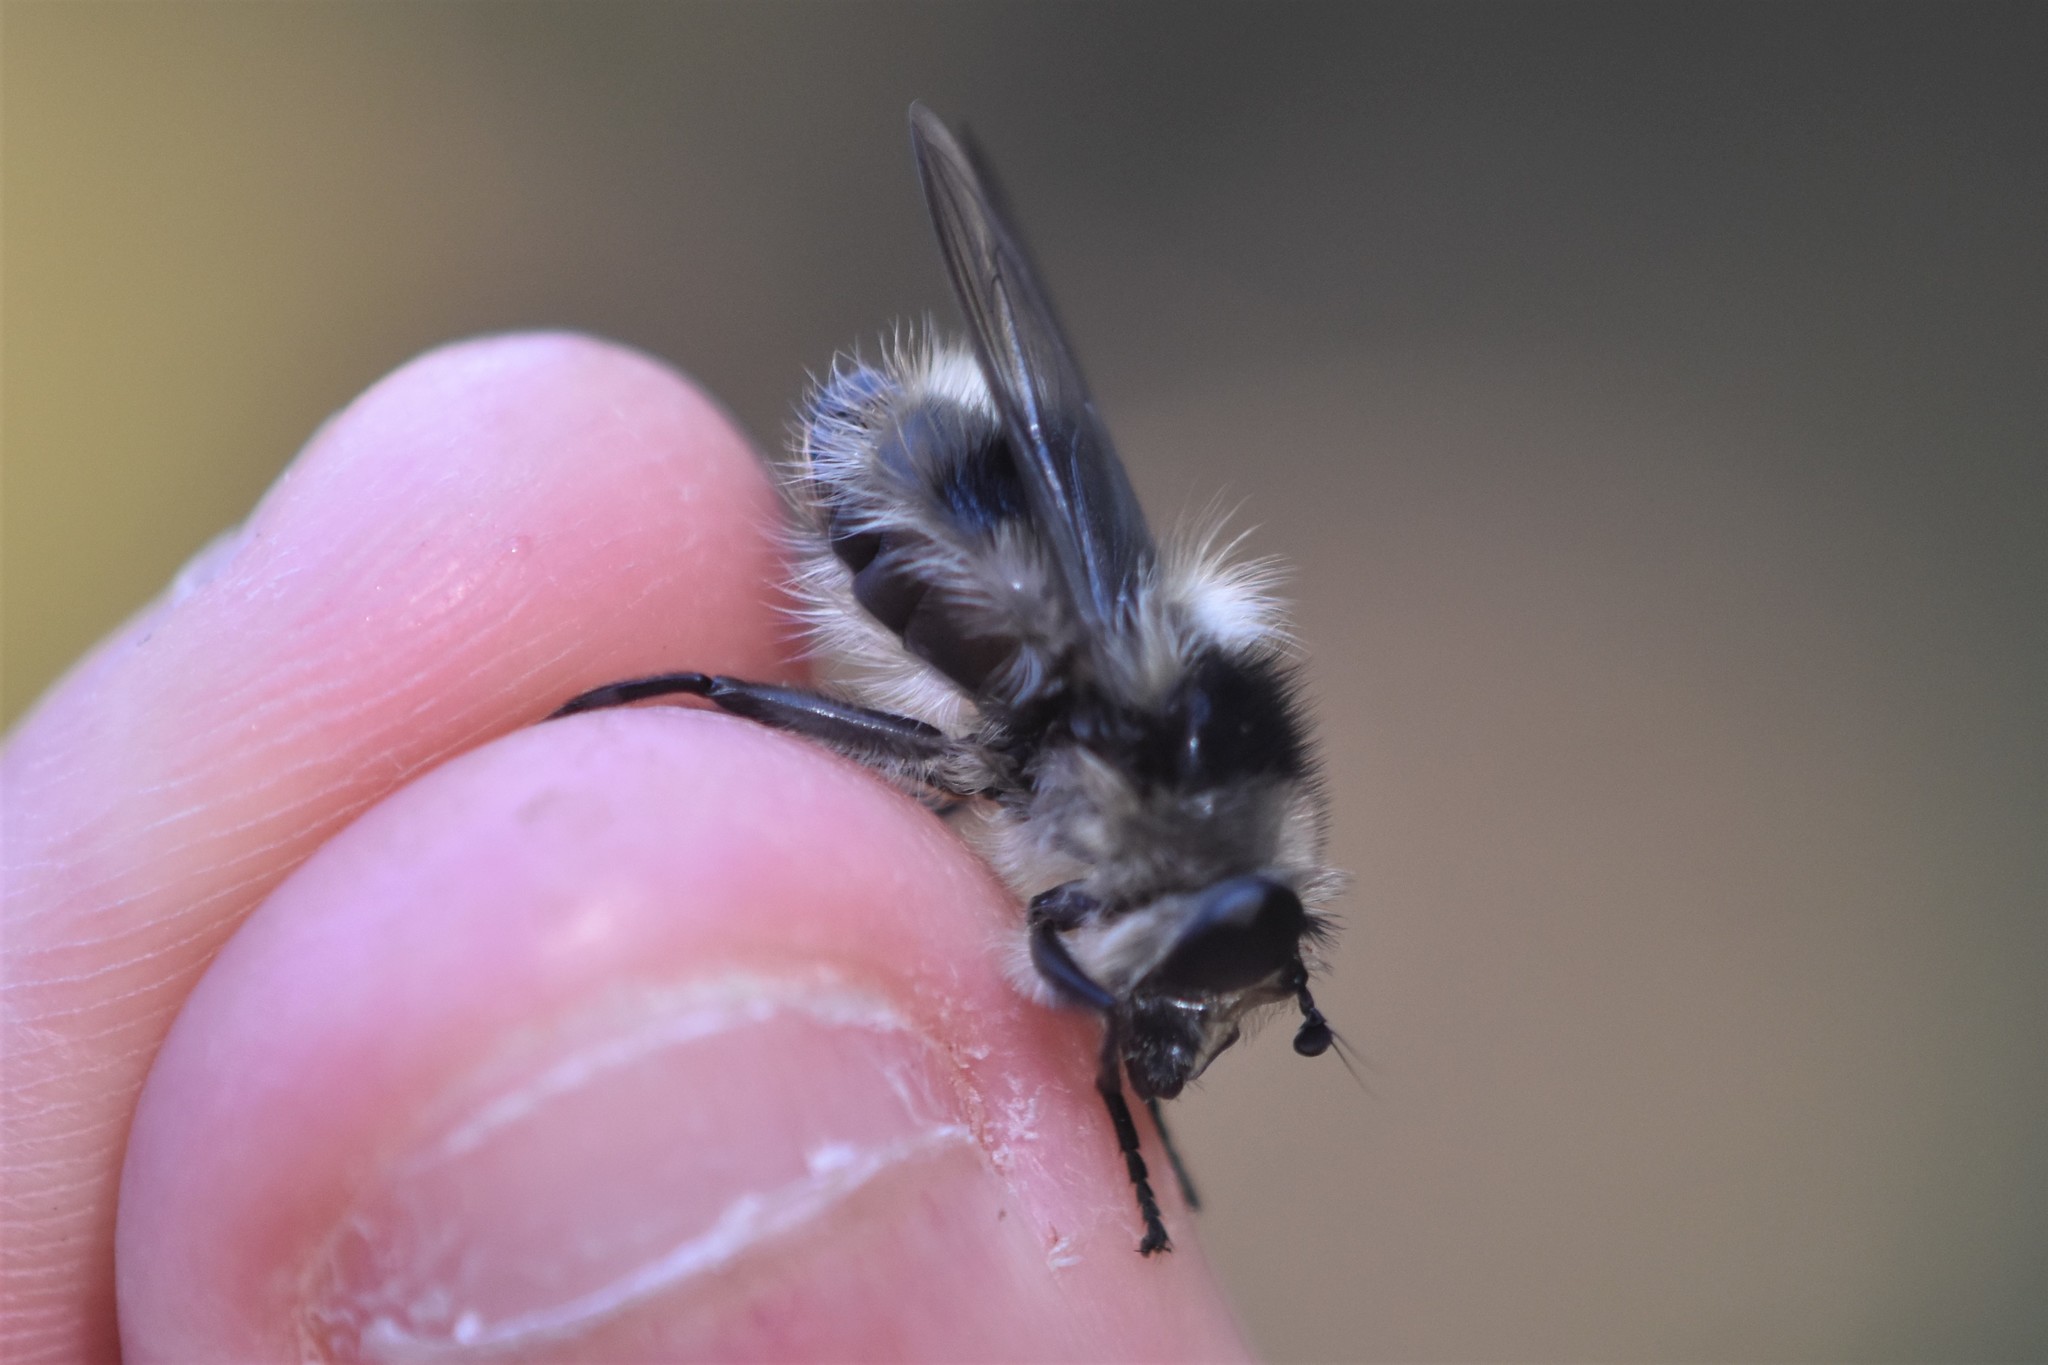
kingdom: Animalia
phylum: Arthropoda
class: Insecta
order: Diptera
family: Syrphidae
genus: Criorhina
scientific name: Criorhina nigripes
